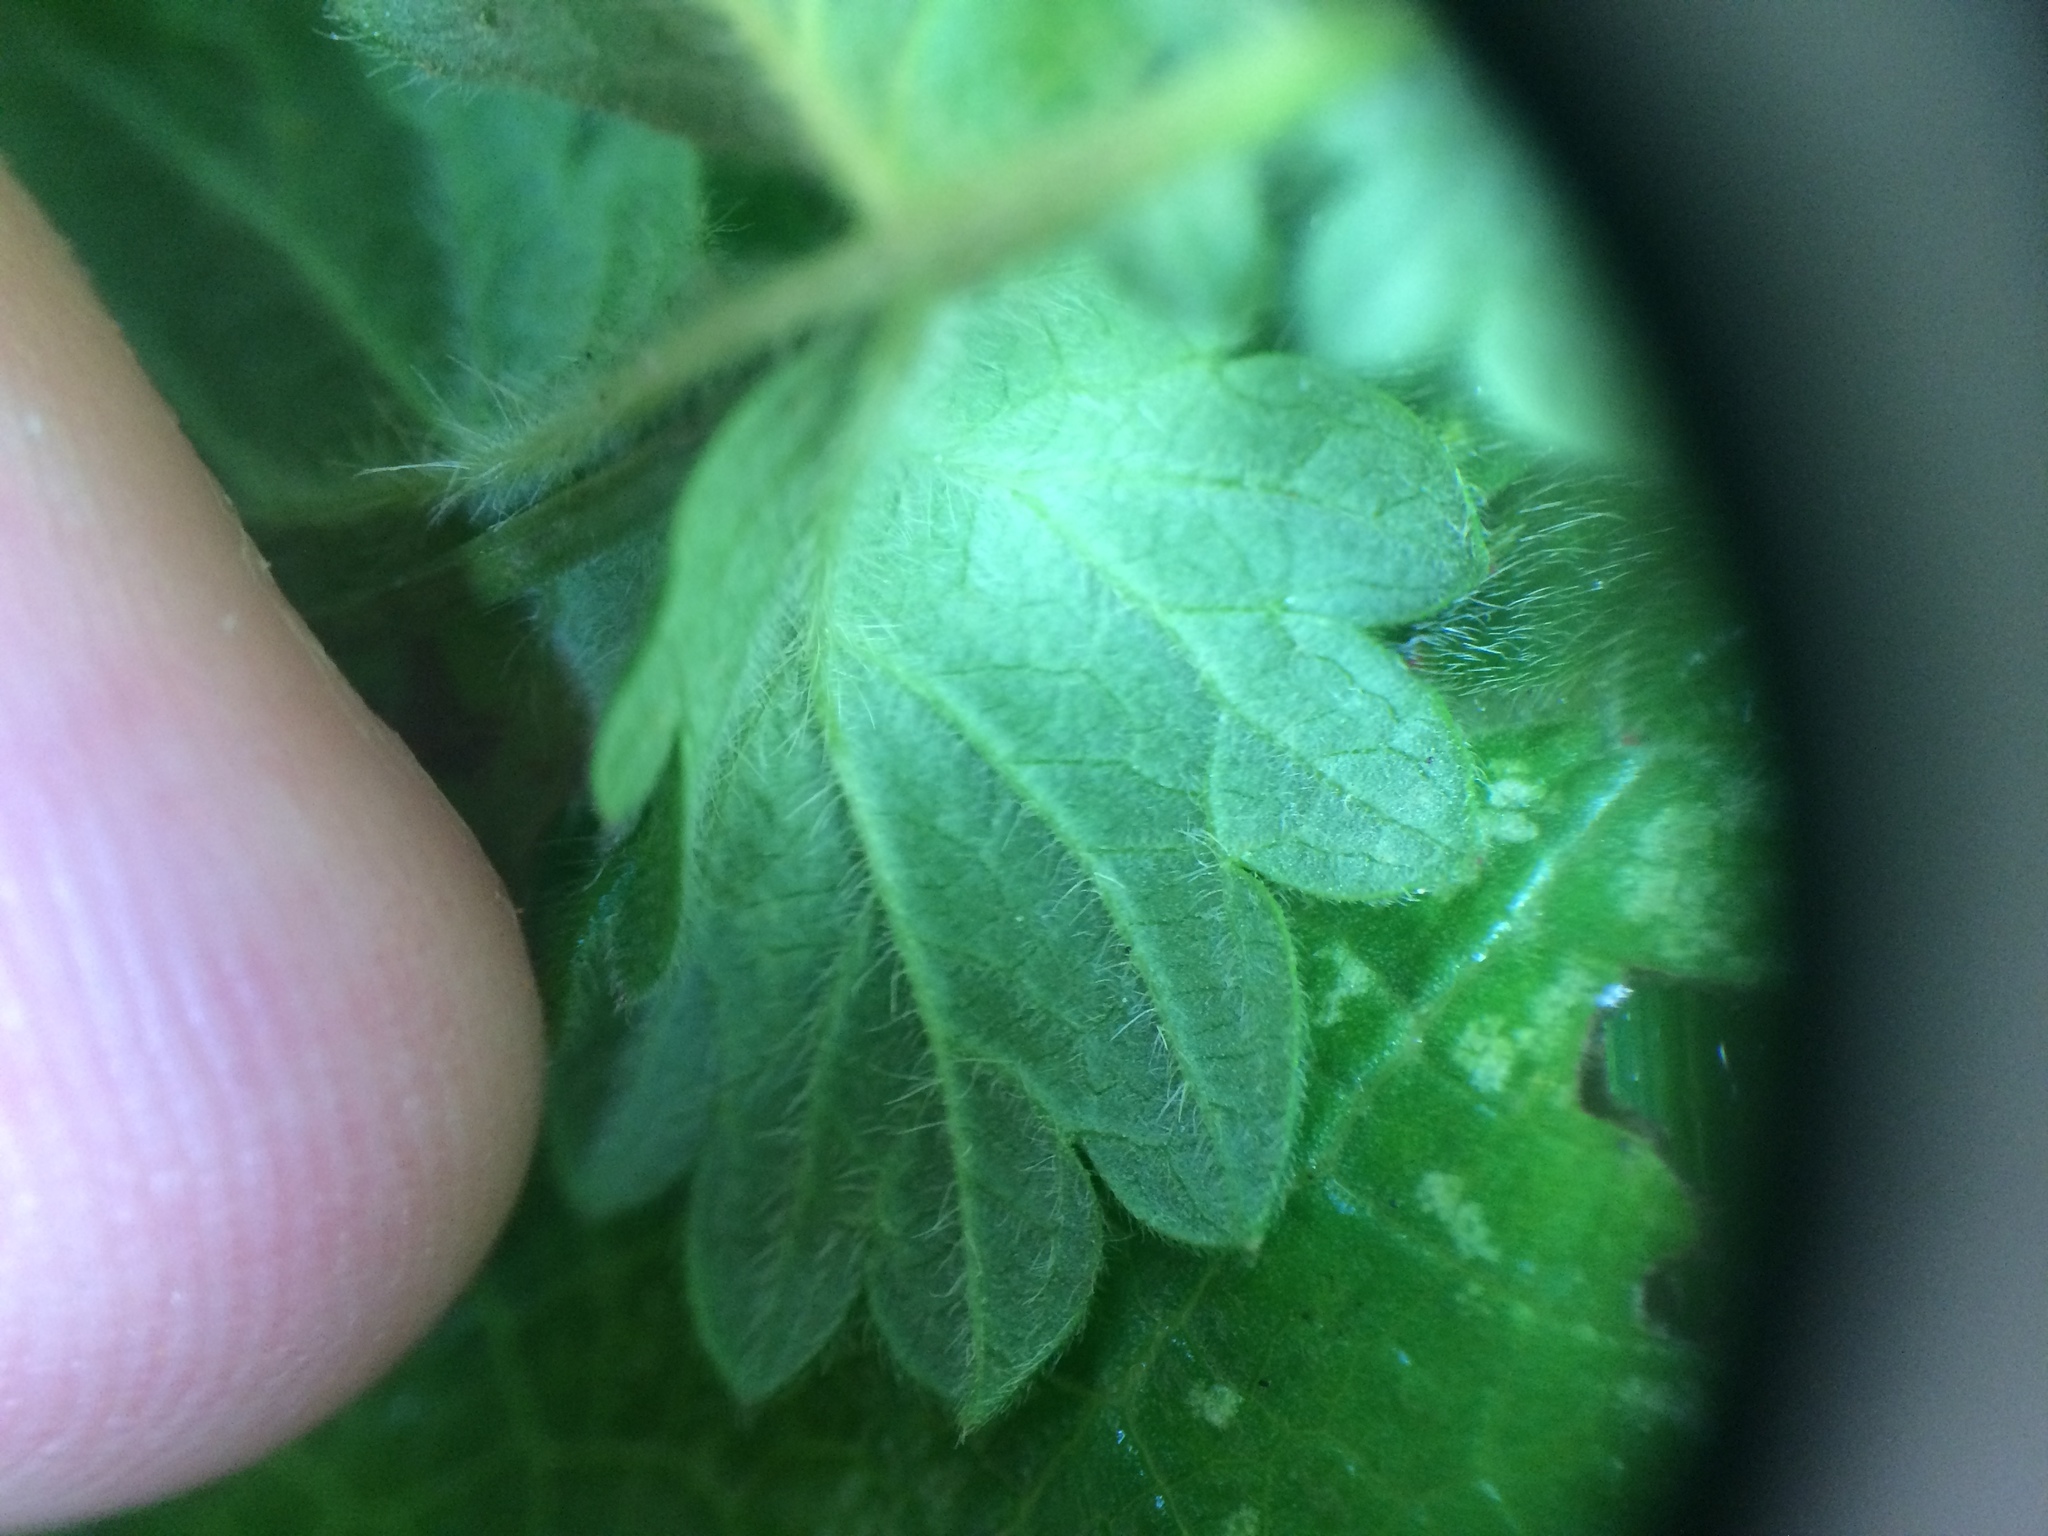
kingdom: Plantae
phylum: Tracheophyta
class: Magnoliopsida
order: Rosales
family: Rosaceae
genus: Agrimonia
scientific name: Agrimonia eupatoria
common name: Agrimony
